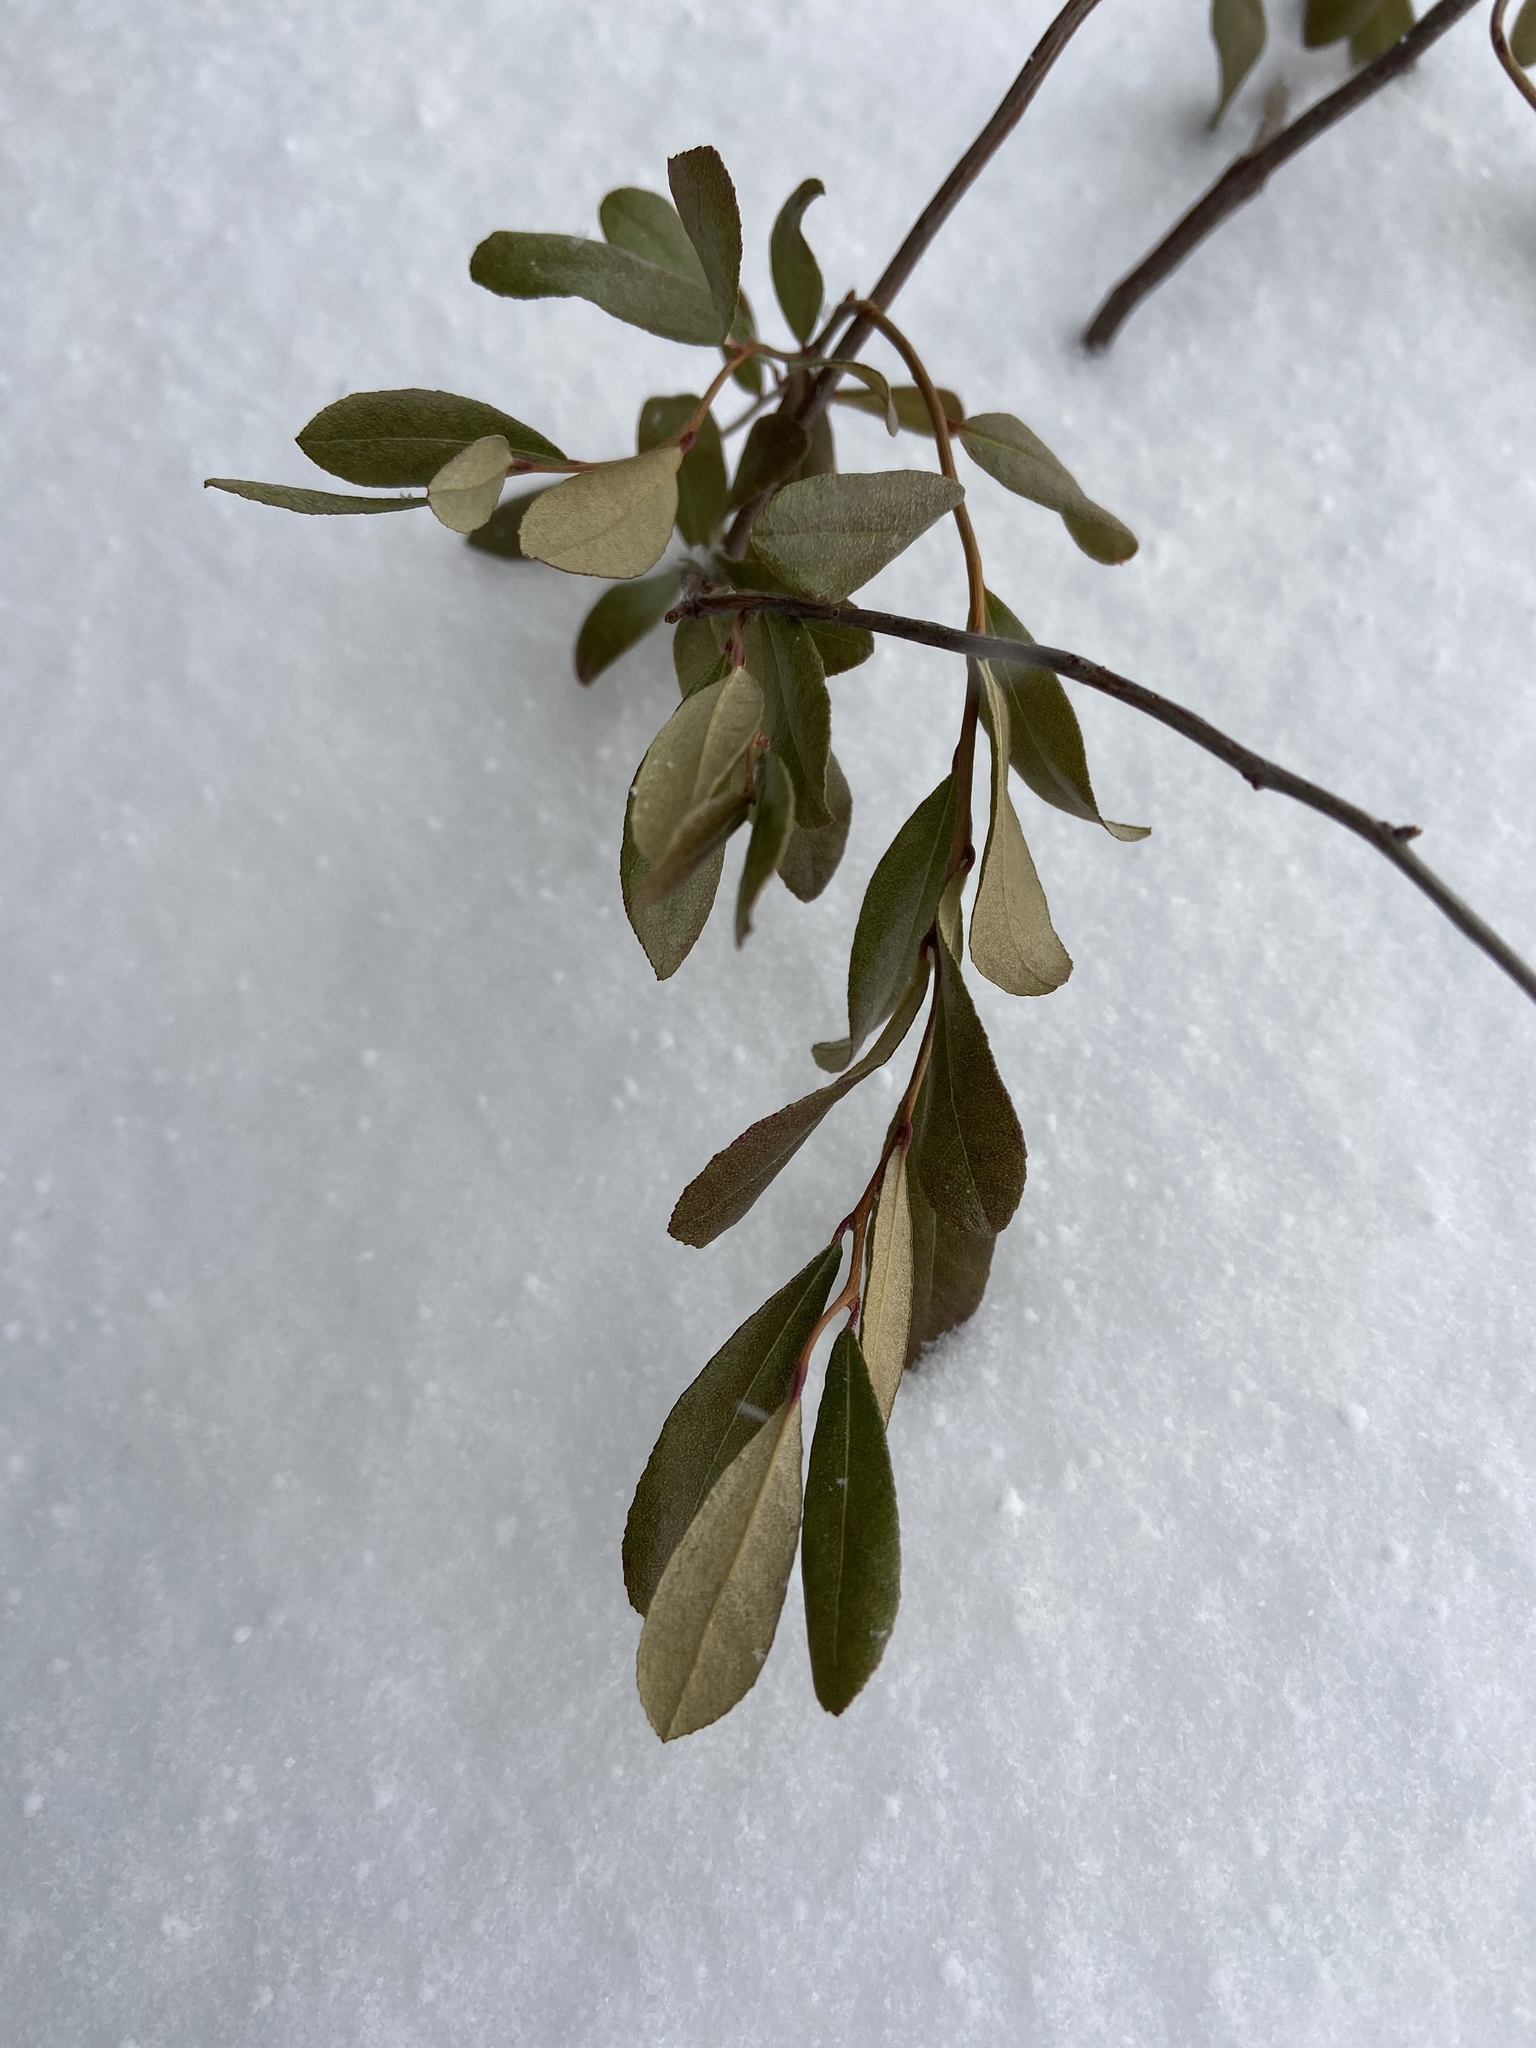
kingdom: Plantae
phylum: Tracheophyta
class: Magnoliopsida
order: Ericales
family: Ericaceae
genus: Chamaedaphne
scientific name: Chamaedaphne calyculata
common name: Leatherleaf
